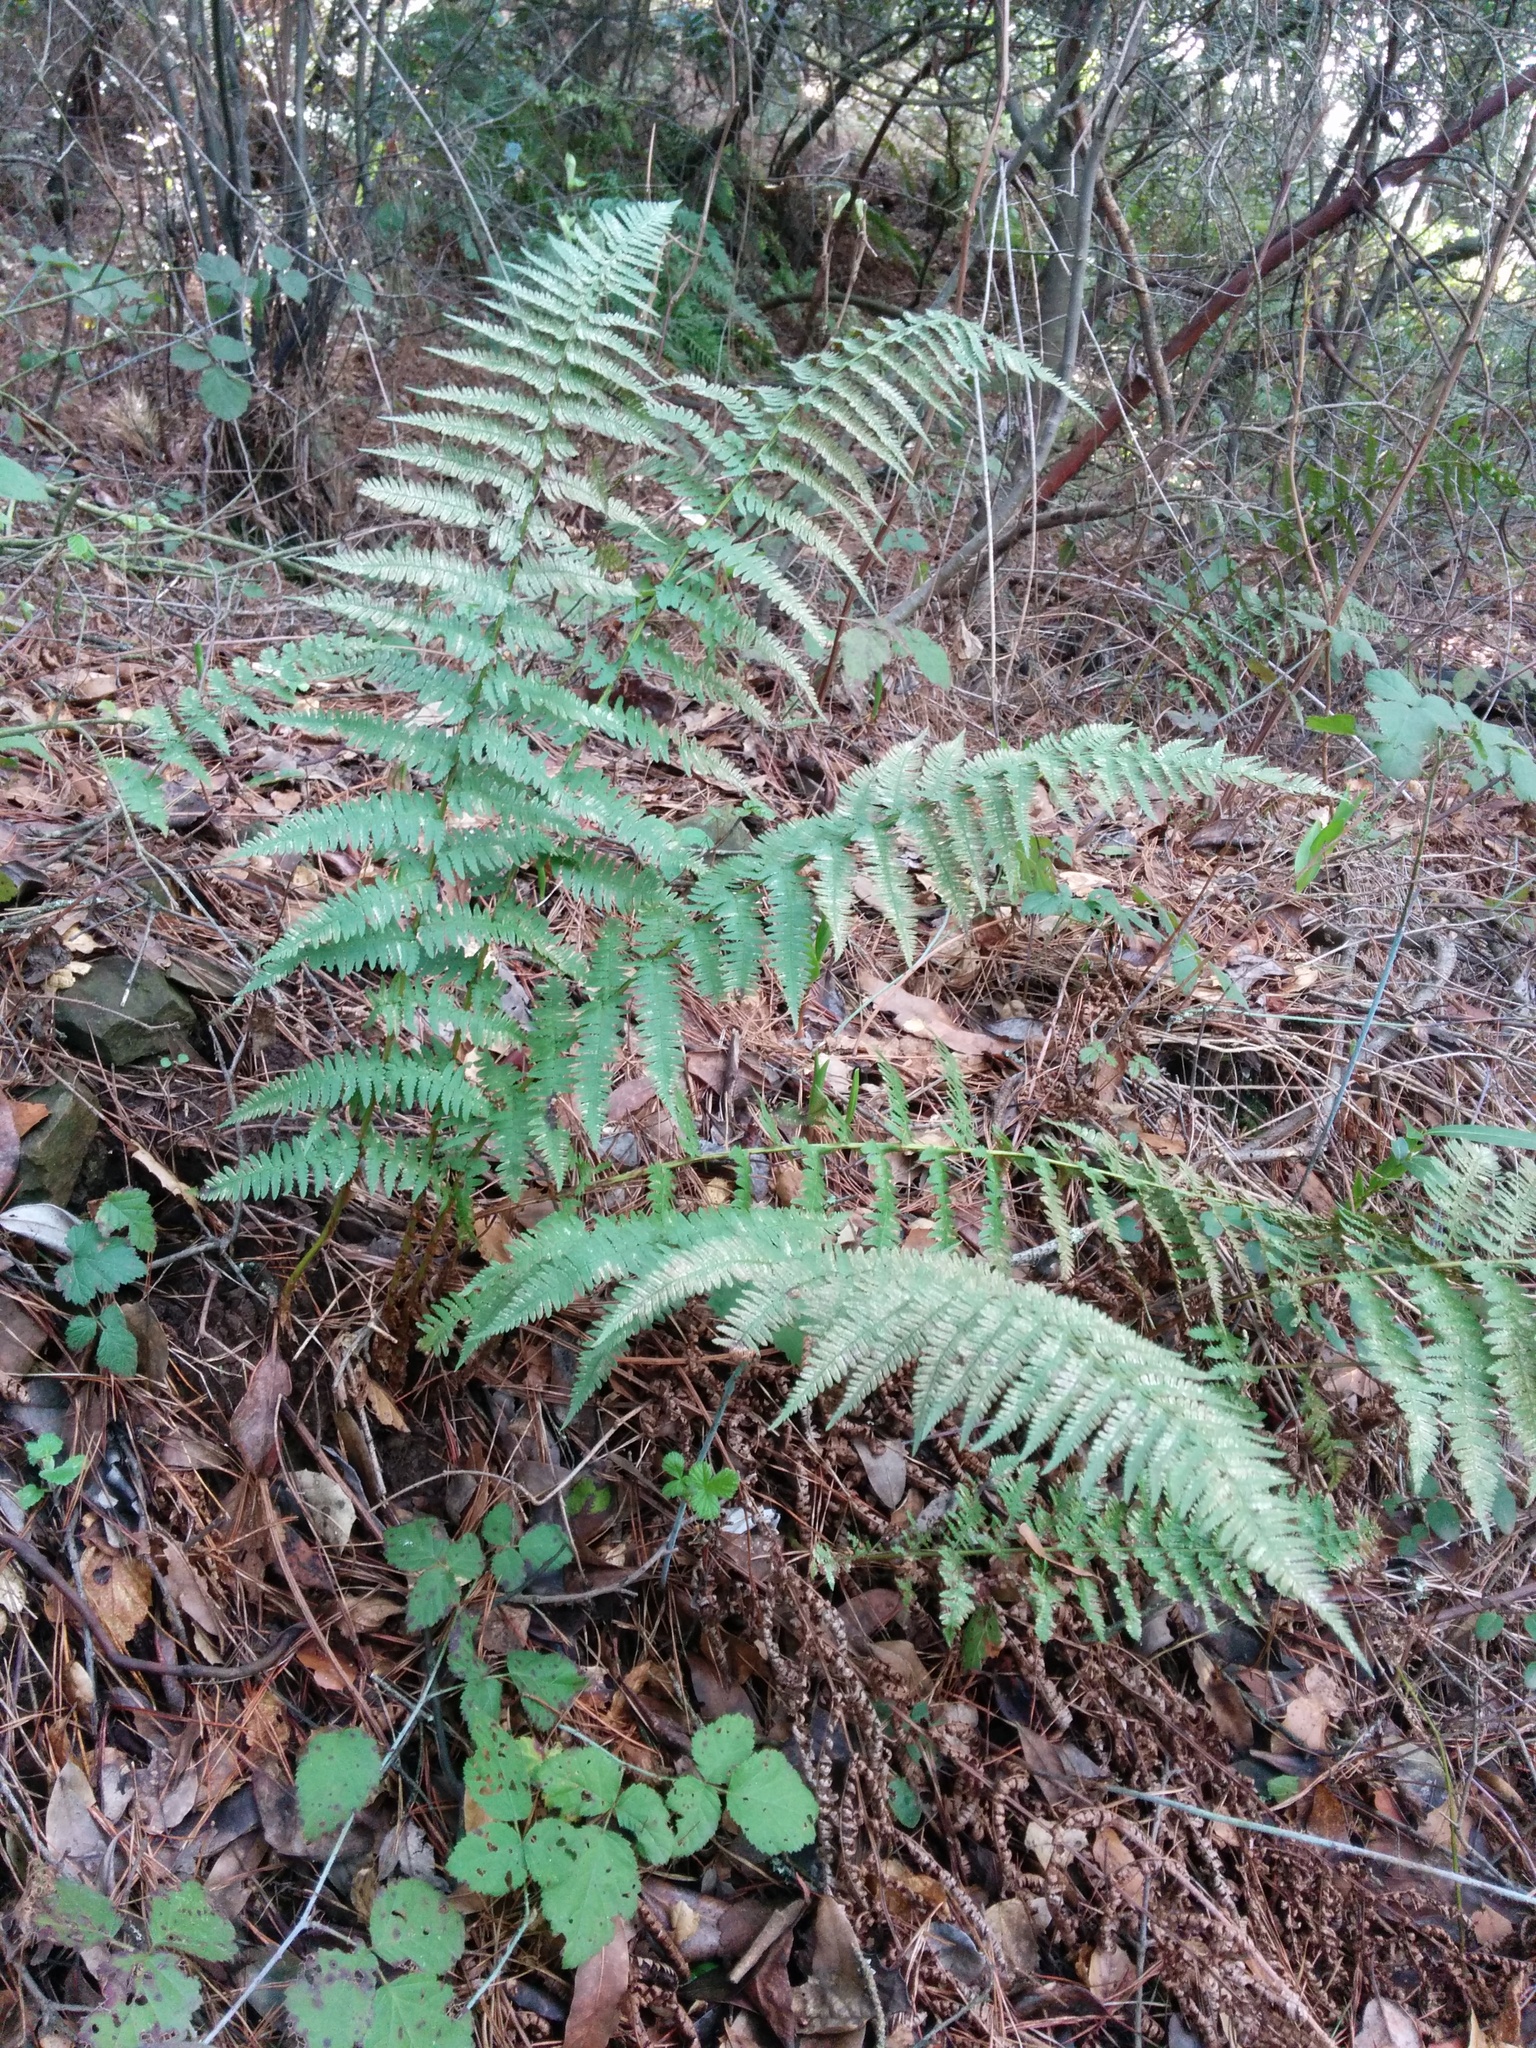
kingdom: Plantae
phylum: Tracheophyta
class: Polypodiopsida
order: Polypodiales
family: Dryopteridaceae
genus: Dryopteris
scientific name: Dryopteris arguta
